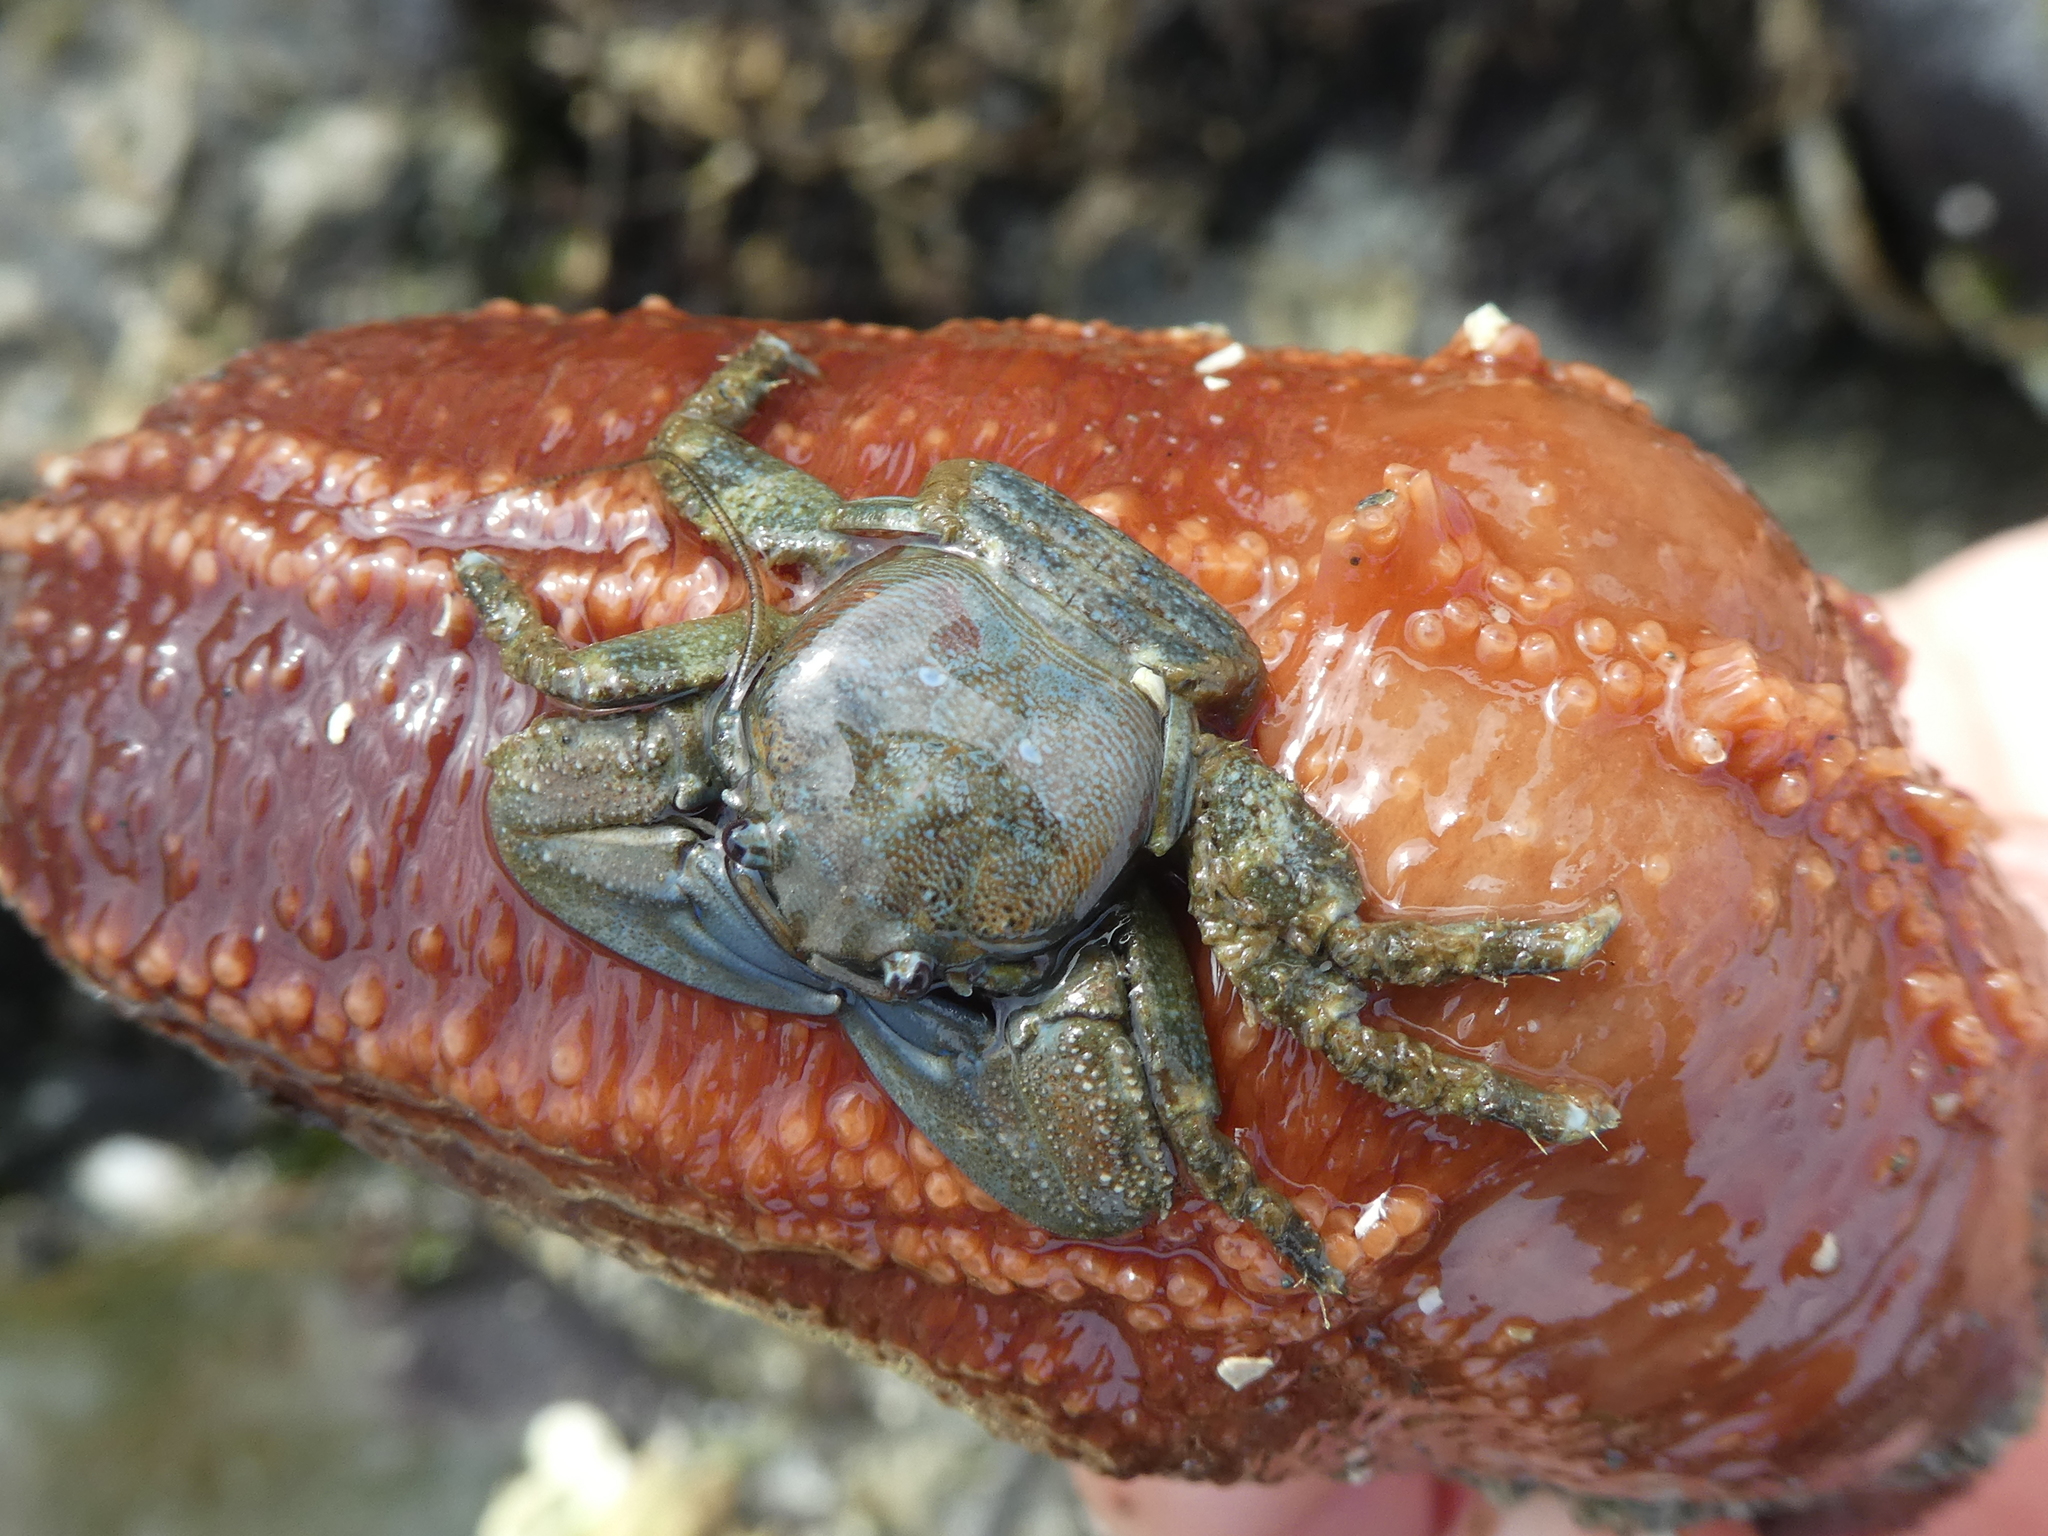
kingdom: Animalia
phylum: Arthropoda
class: Malacostraca
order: Decapoda
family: Porcellanidae
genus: Petrolisthes
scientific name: Petrolisthes eriomerus
